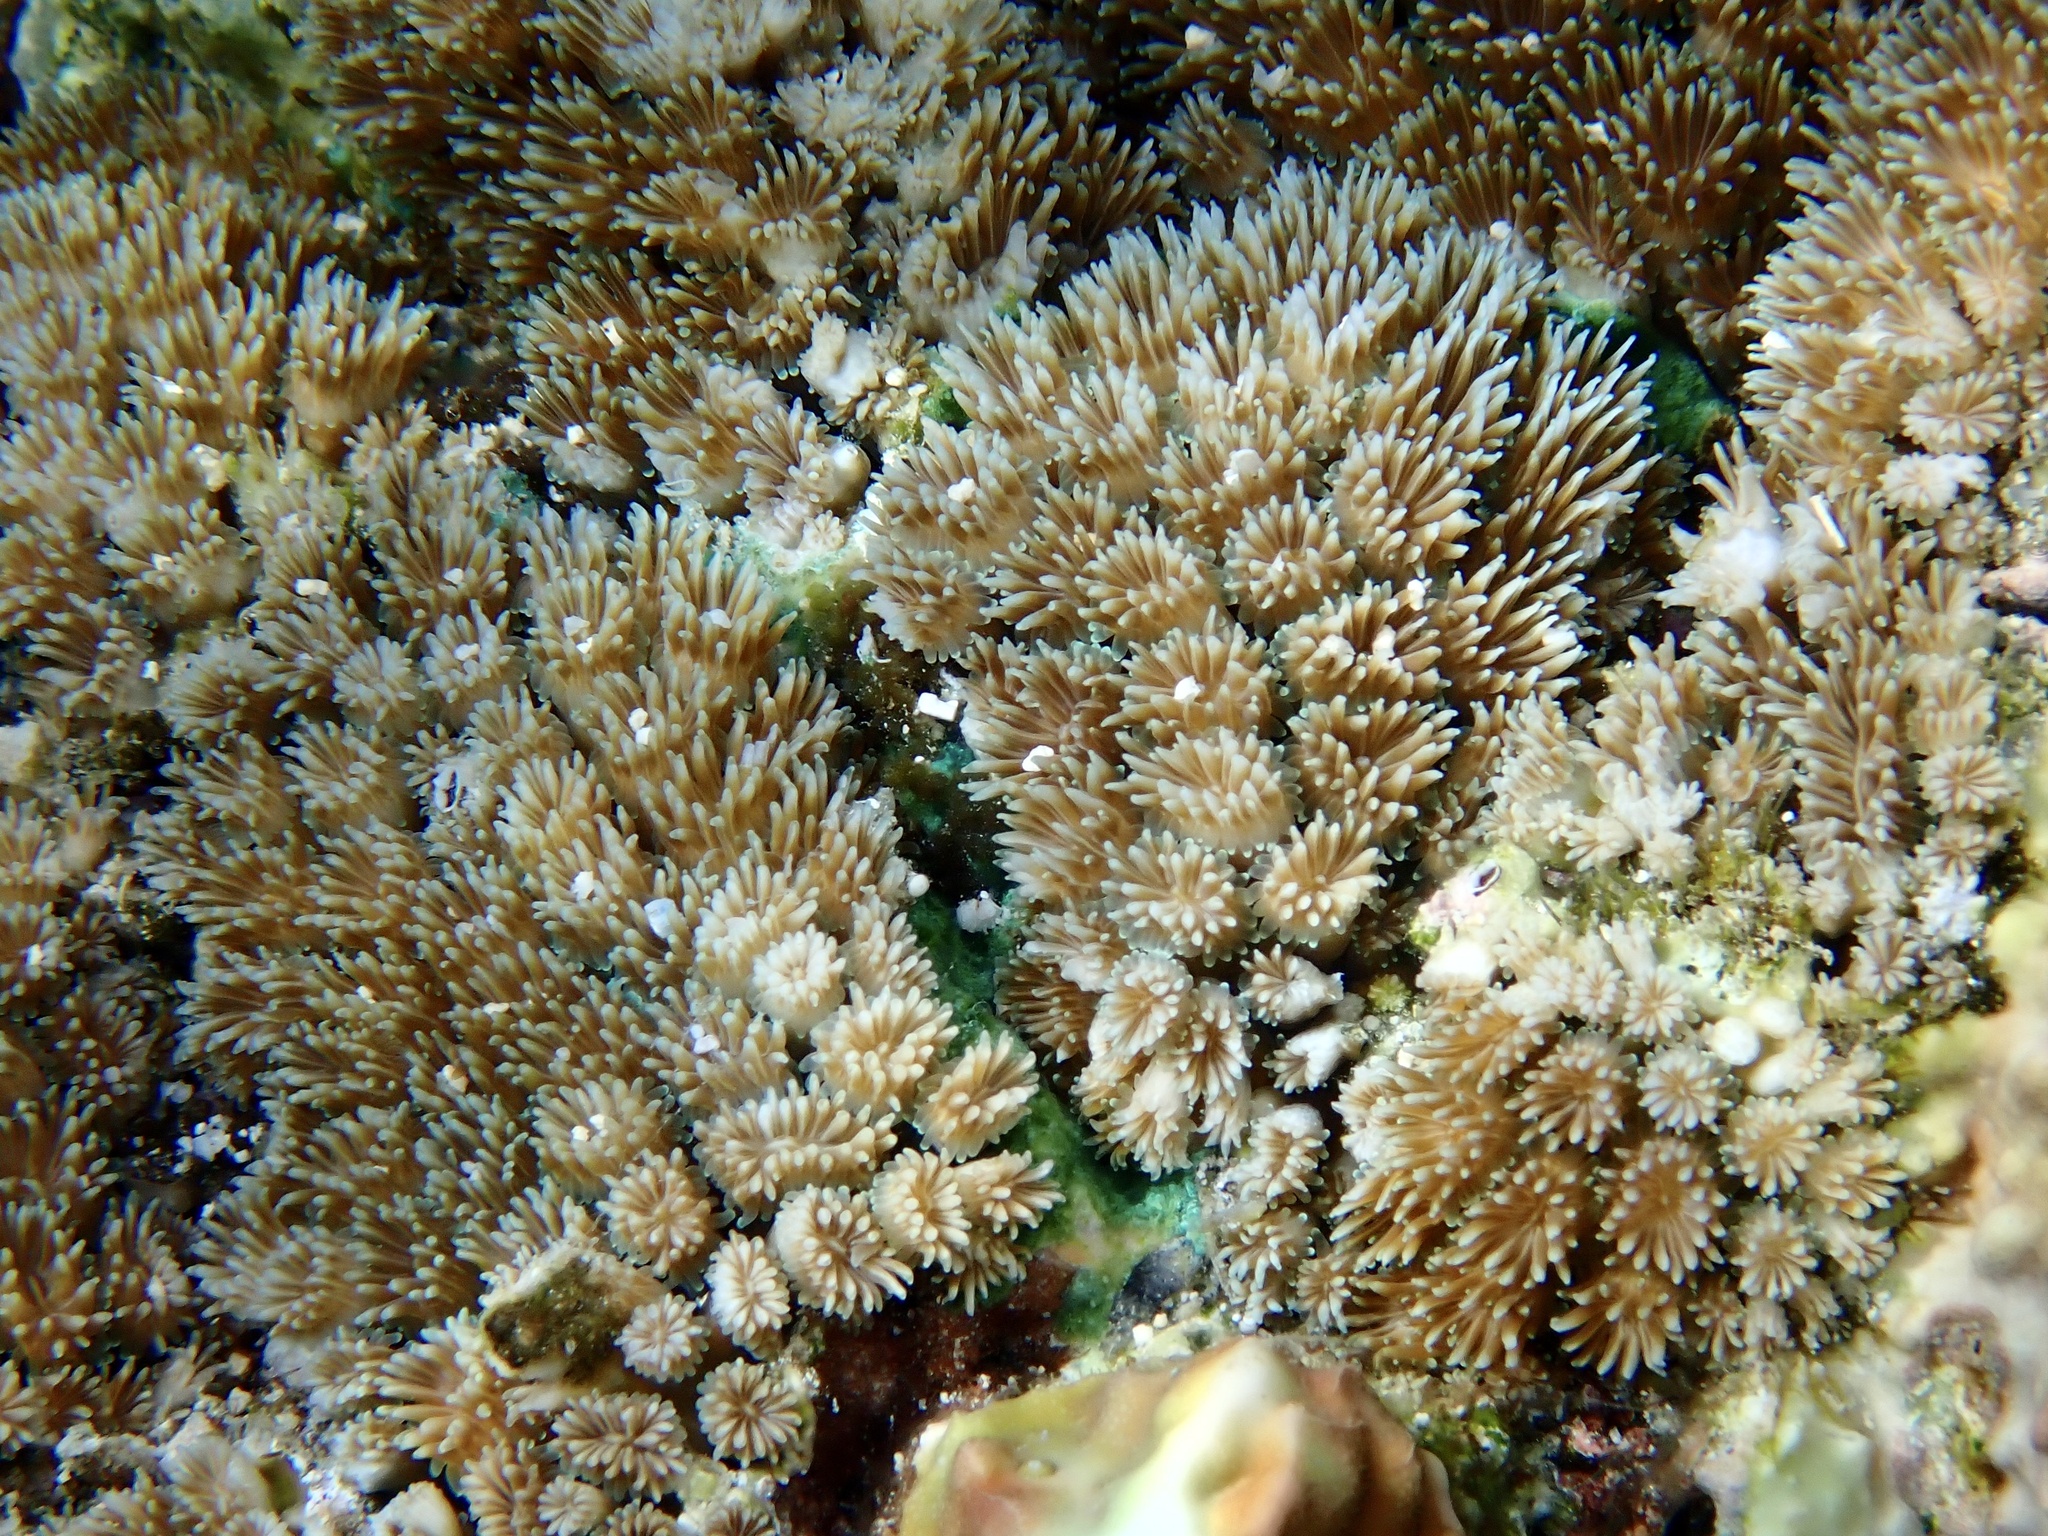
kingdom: Animalia
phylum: Cnidaria
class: Anthozoa
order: Scleractinia
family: Euphylliidae
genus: Galaxea
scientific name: Galaxea fascicularis
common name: Octopus coral
